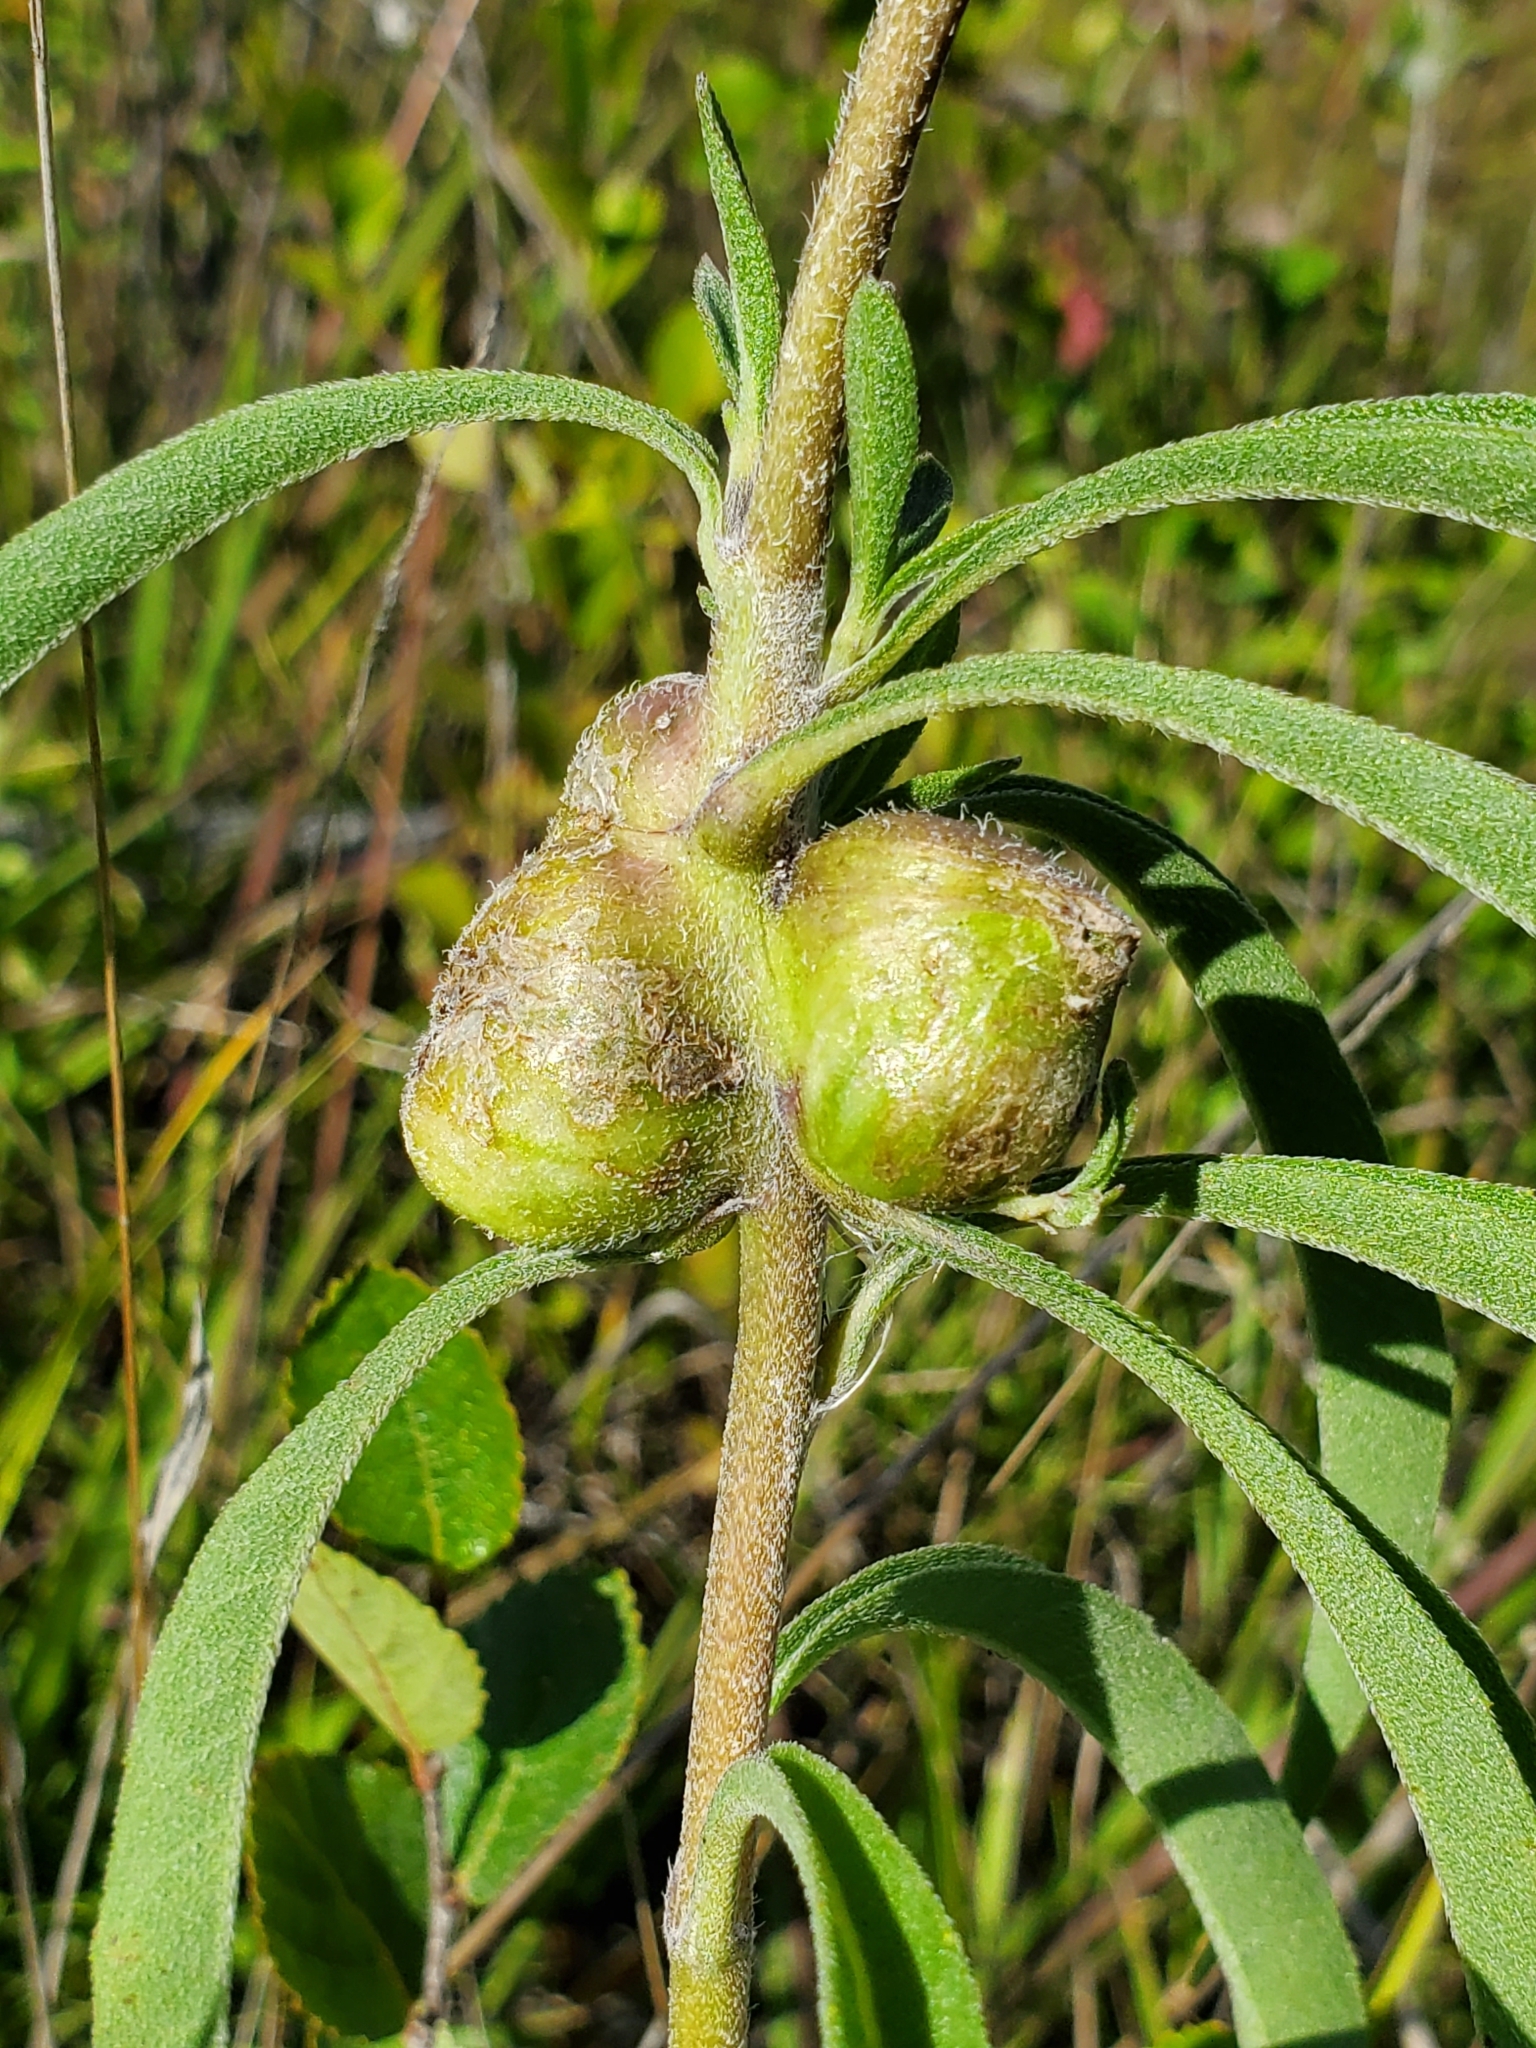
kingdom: Animalia
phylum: Arthropoda
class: Insecta
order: Diptera
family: Cecidomyiidae
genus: Asphondylia
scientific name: Asphondylia helianthiglobulus
